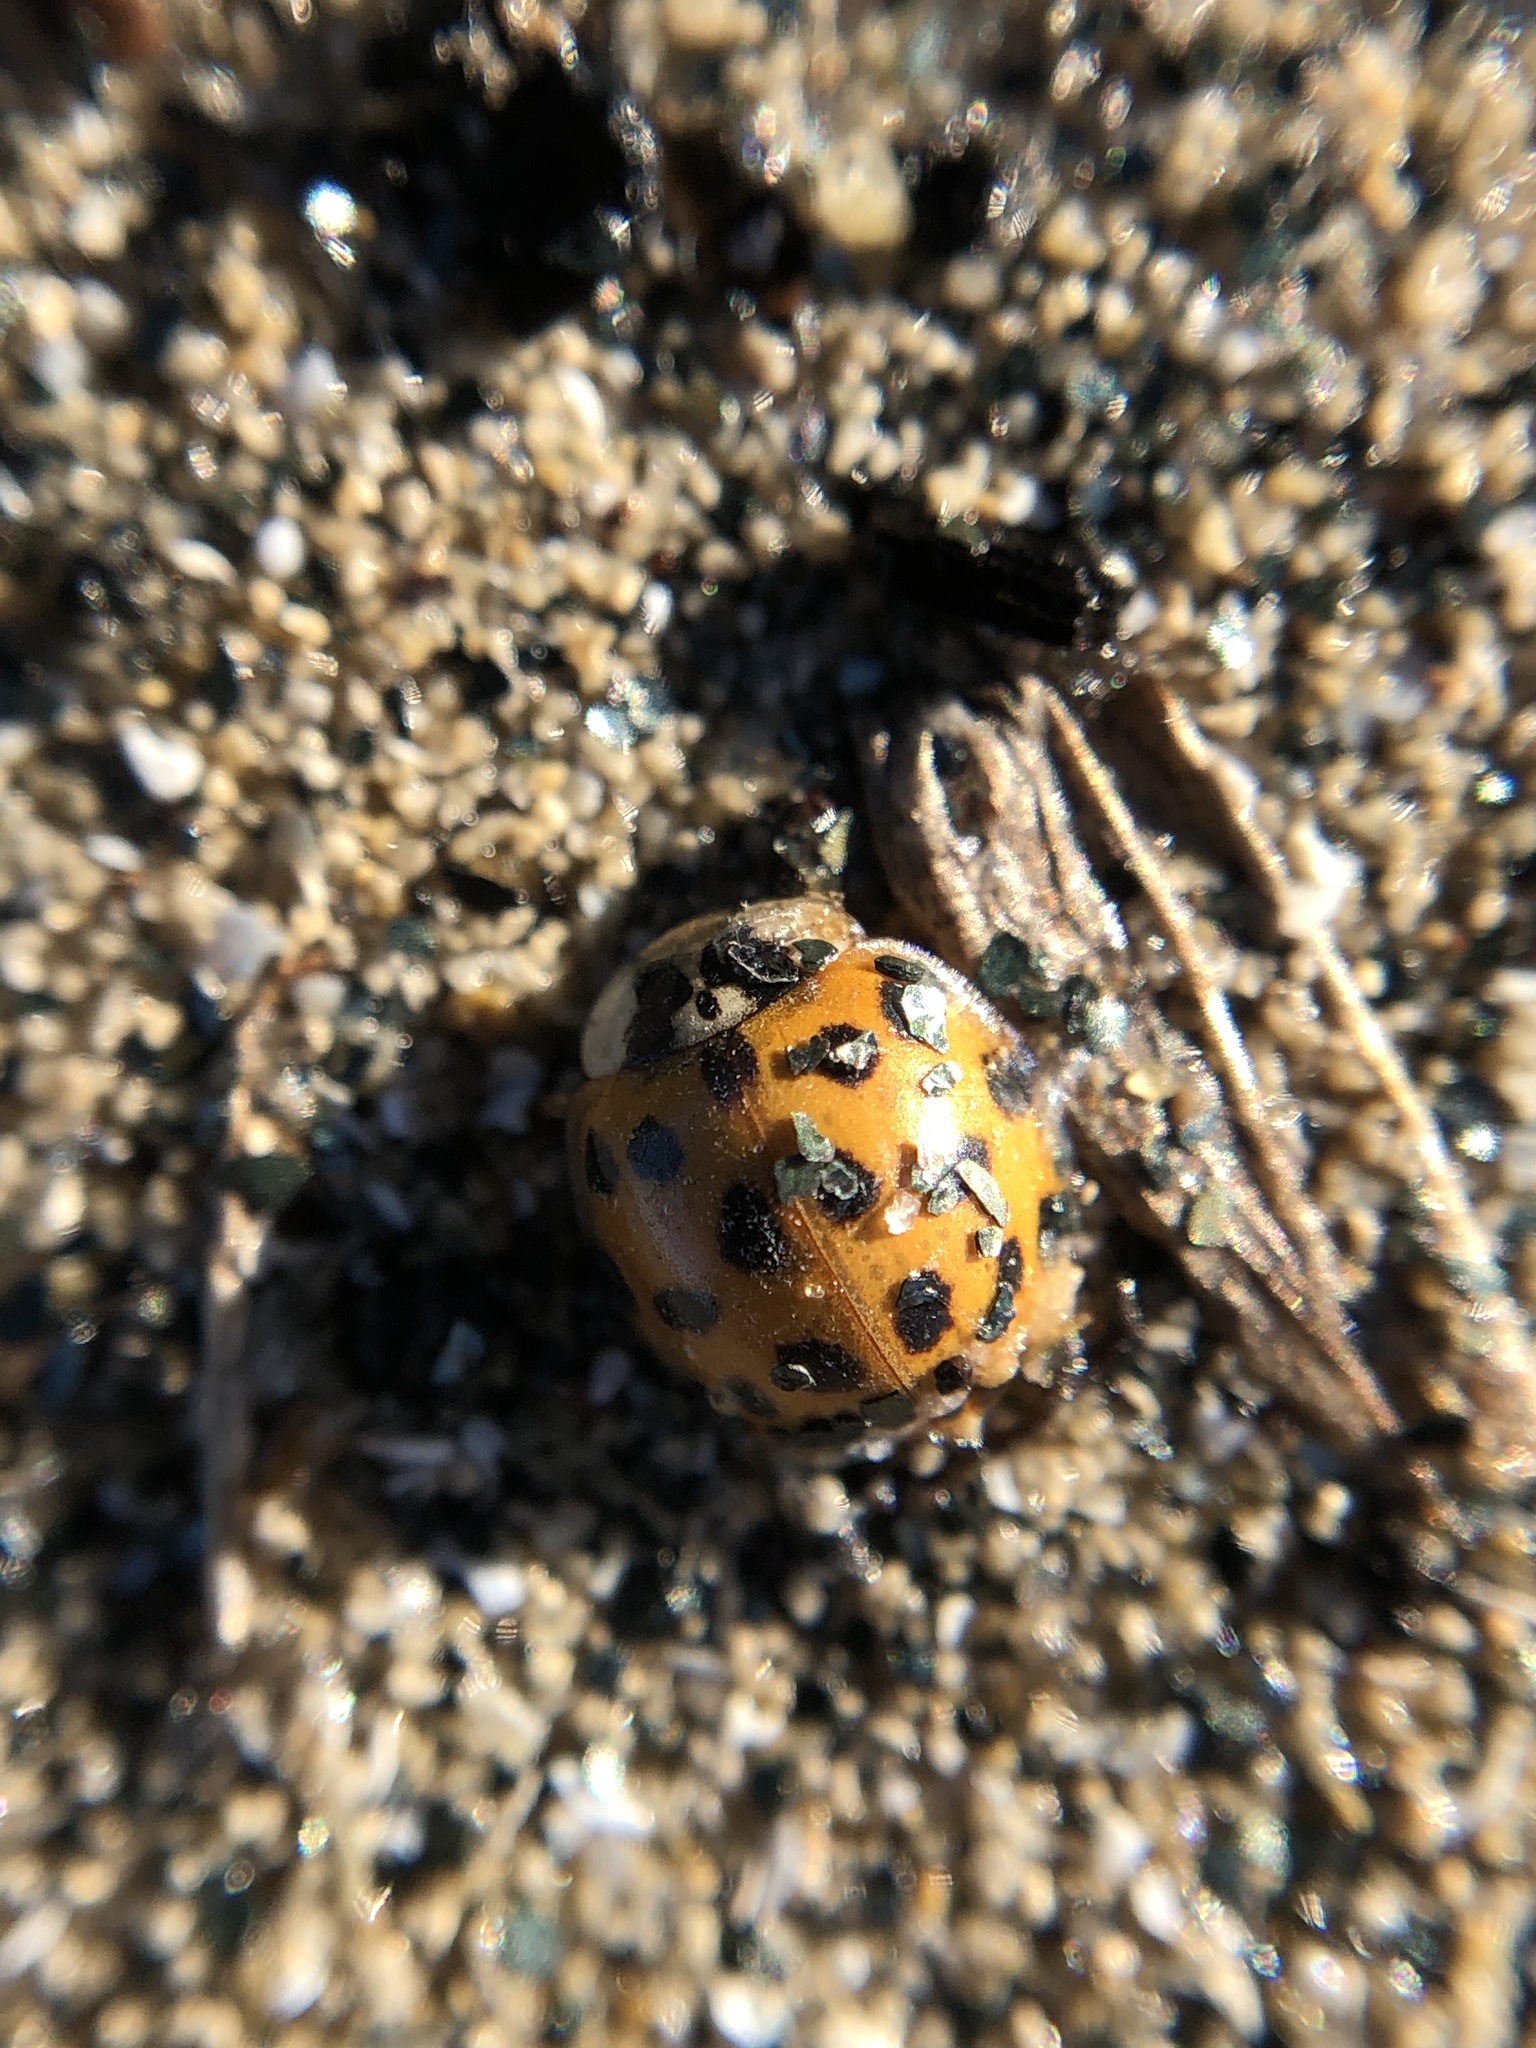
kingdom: Animalia
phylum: Arthropoda
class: Insecta
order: Coleoptera
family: Coccinellidae
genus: Harmonia
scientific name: Harmonia axyridis
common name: Harlequin ladybird
